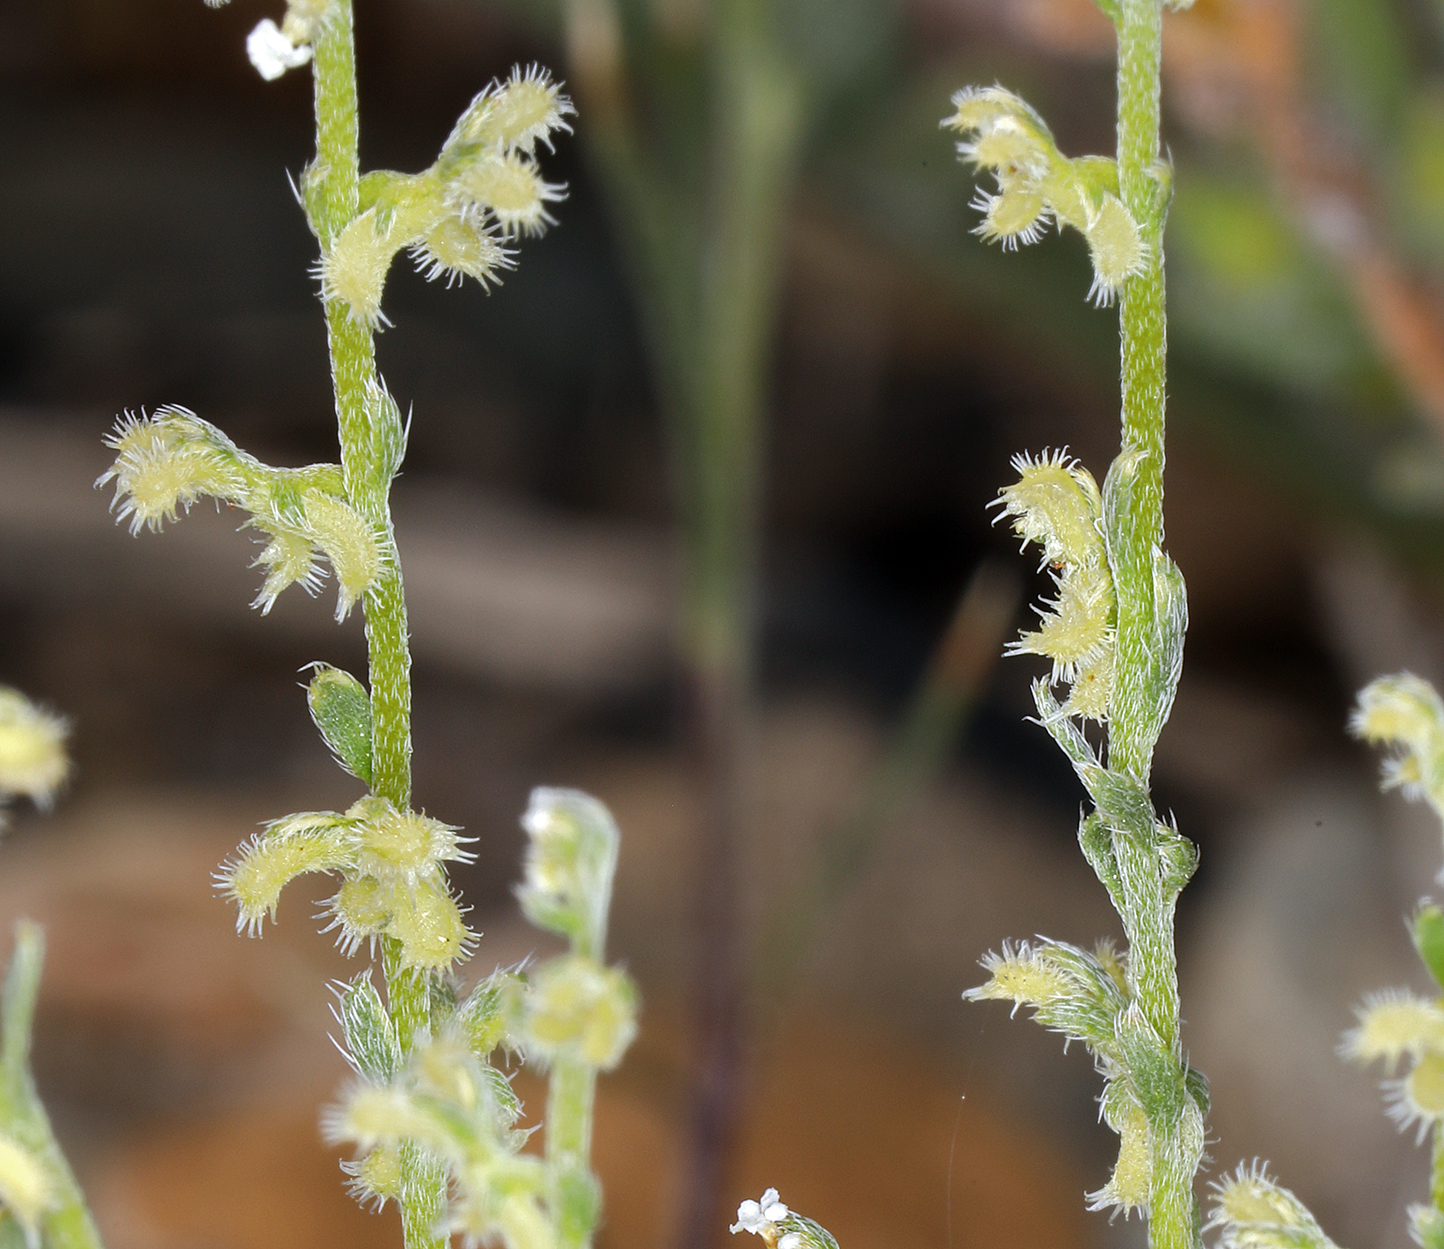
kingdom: Plantae
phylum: Tracheophyta
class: Magnoliopsida
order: Boraginales
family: Boraginaceae
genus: Pectocarya
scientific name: Pectocarya heterocarpa
